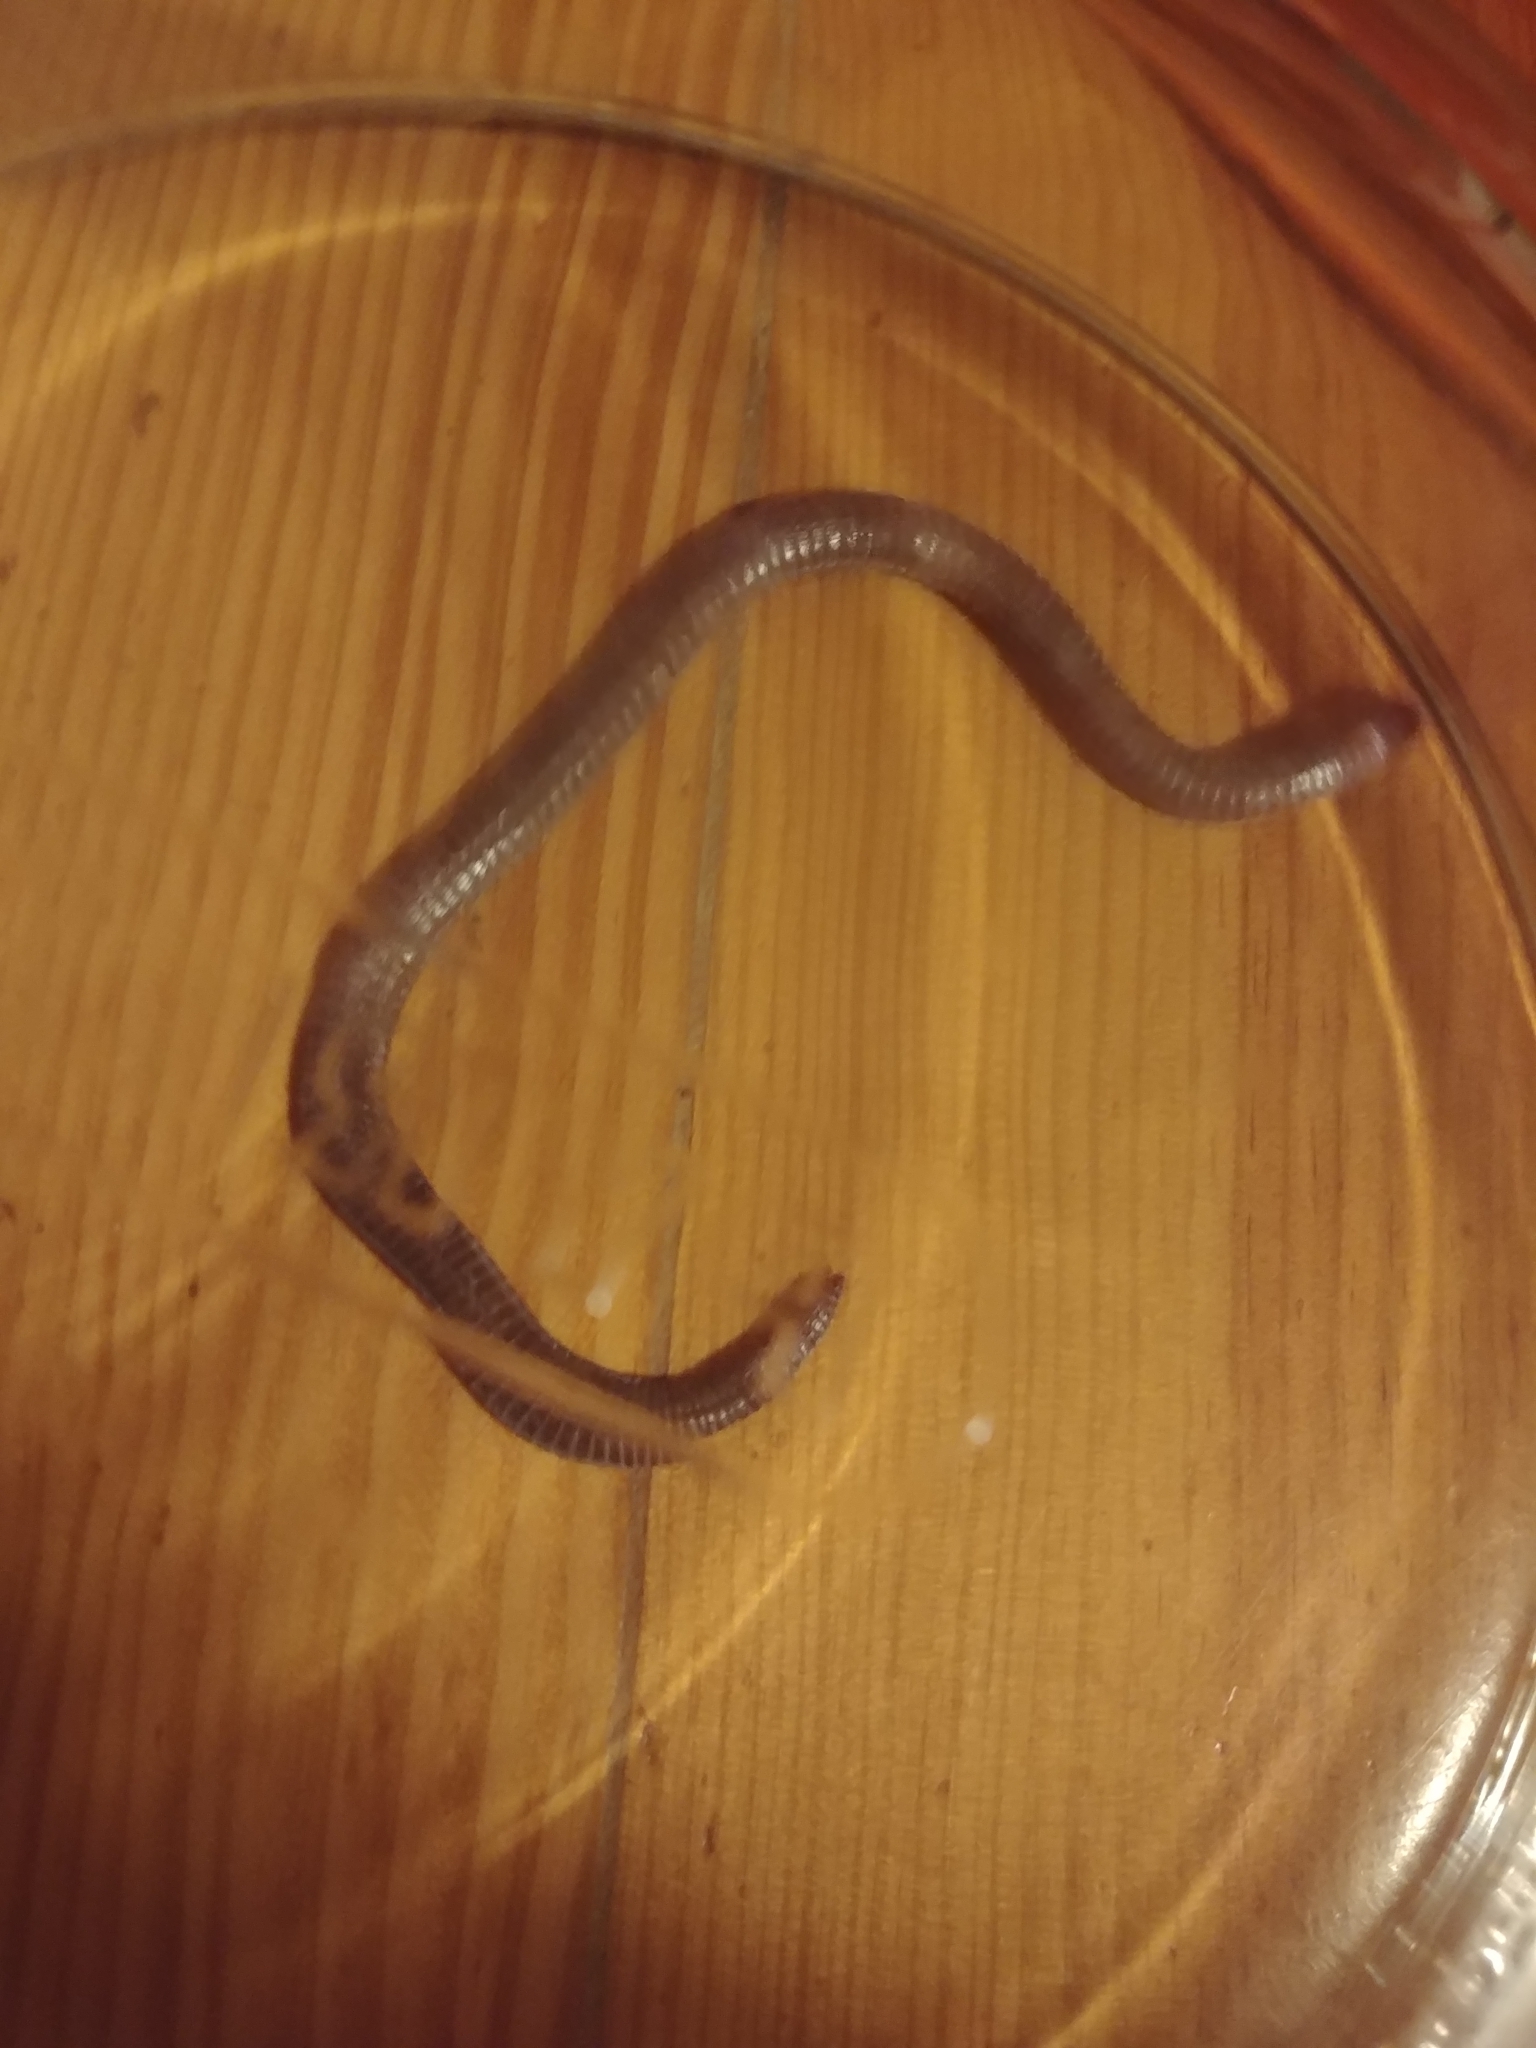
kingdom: Animalia
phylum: Chordata
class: Squamata
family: Blanidae
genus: Blanus
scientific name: Blanus cinereus
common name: Mediterranean worm lizard
